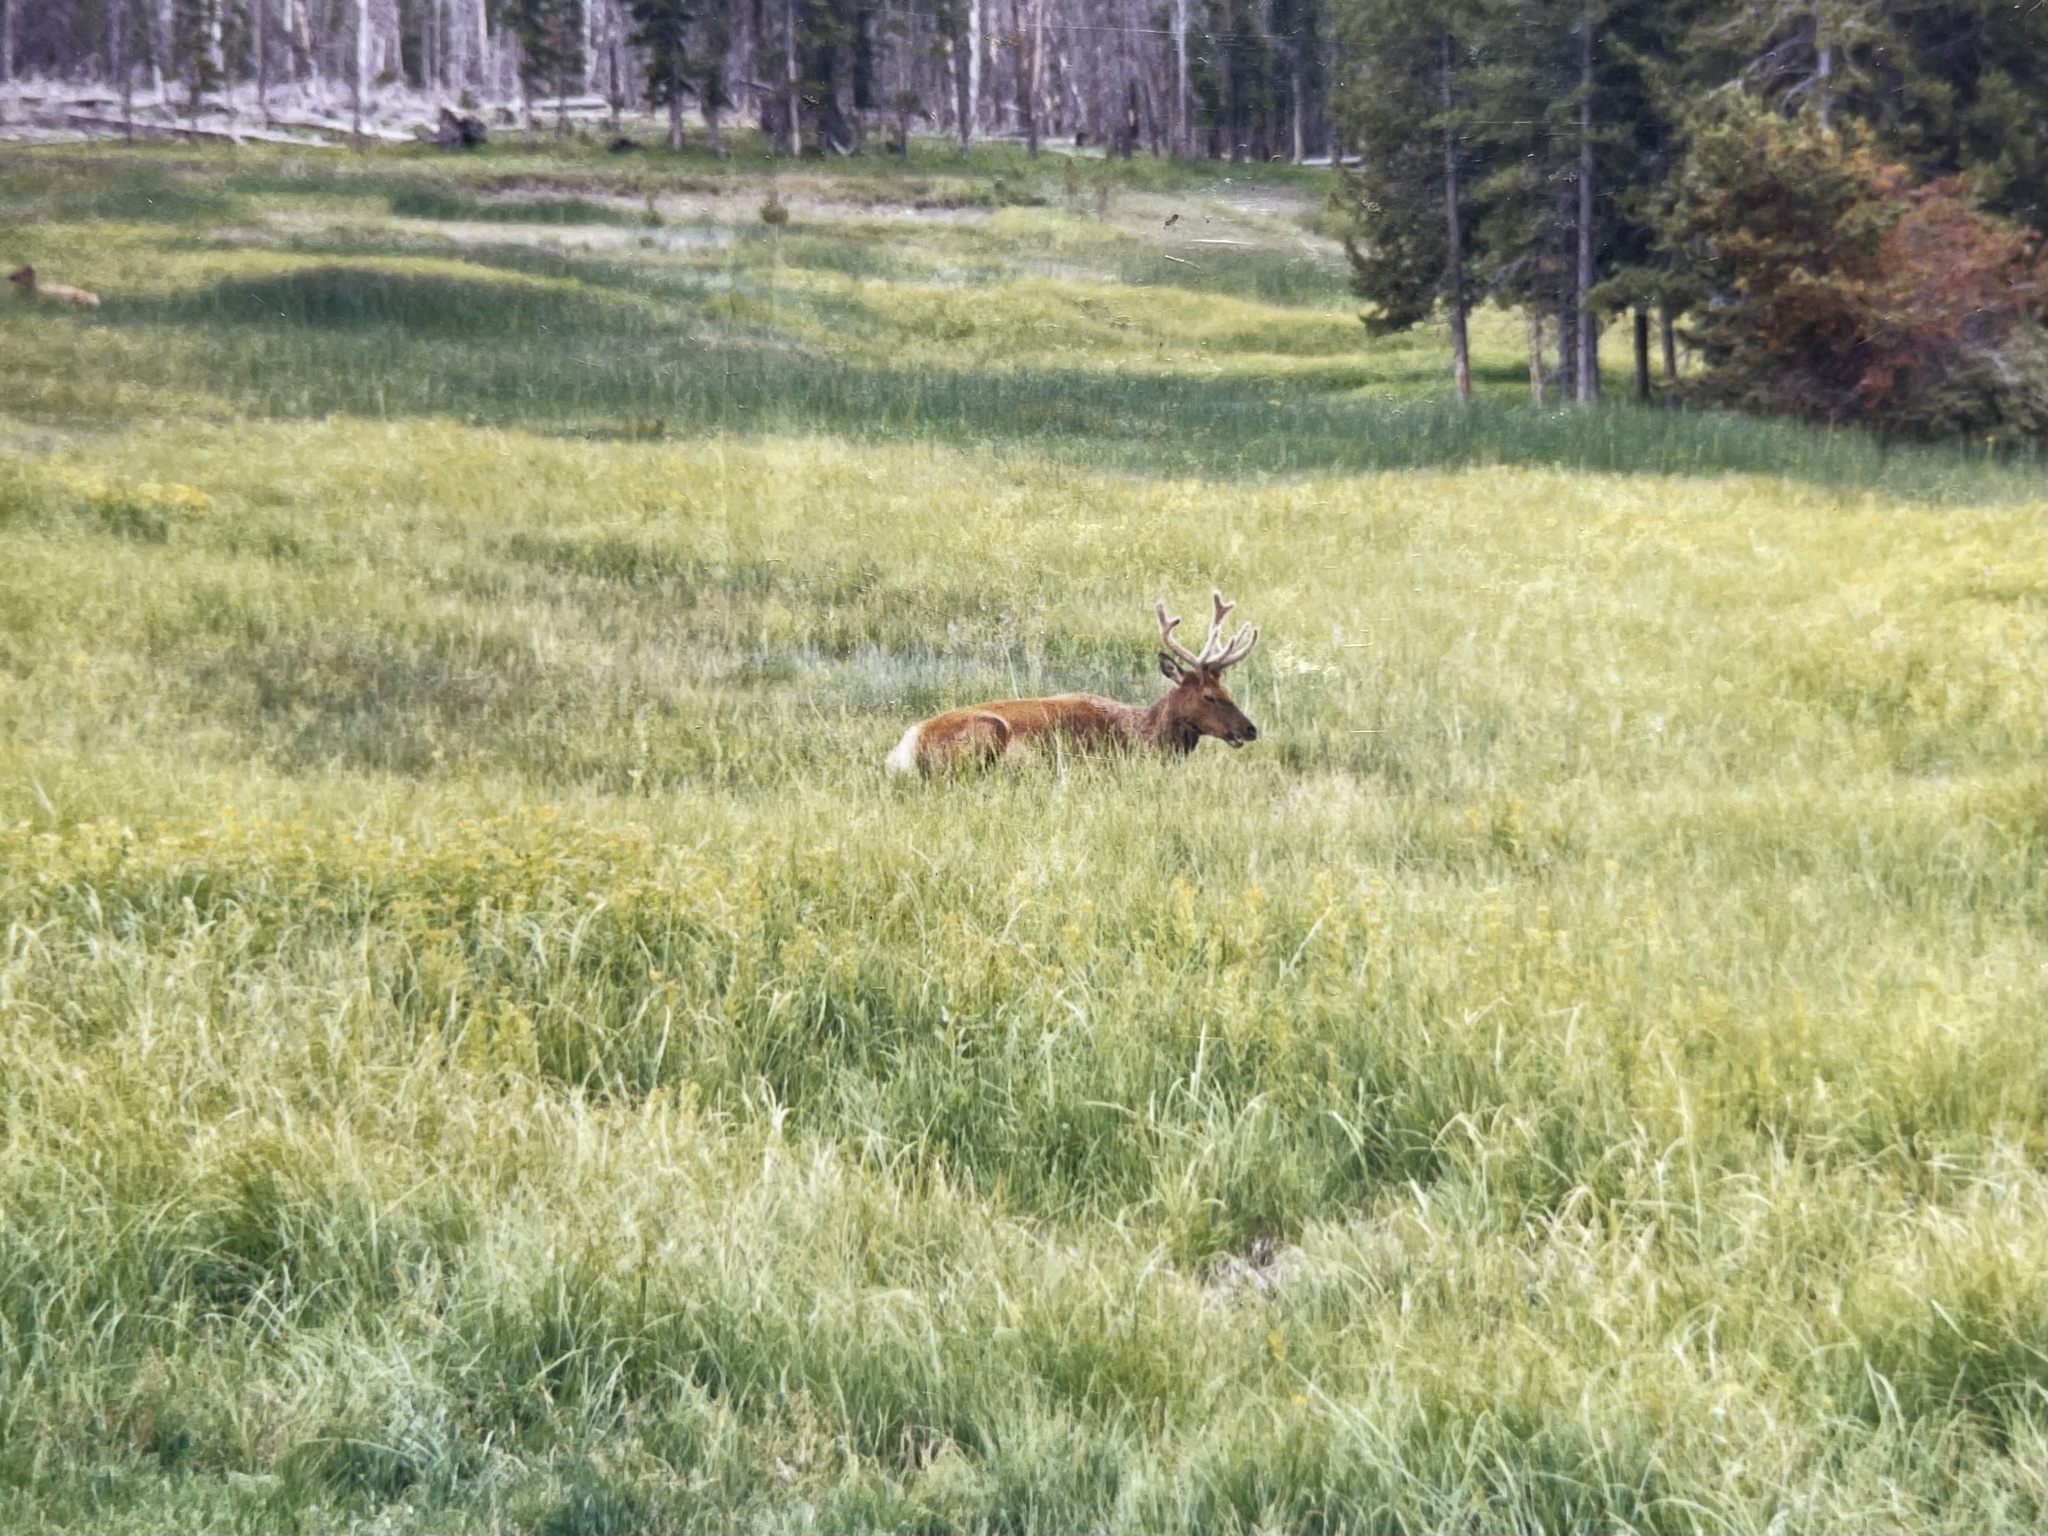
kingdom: Animalia
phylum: Chordata
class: Mammalia
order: Artiodactyla
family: Cervidae
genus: Cervus
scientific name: Cervus elaphus
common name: Red deer
